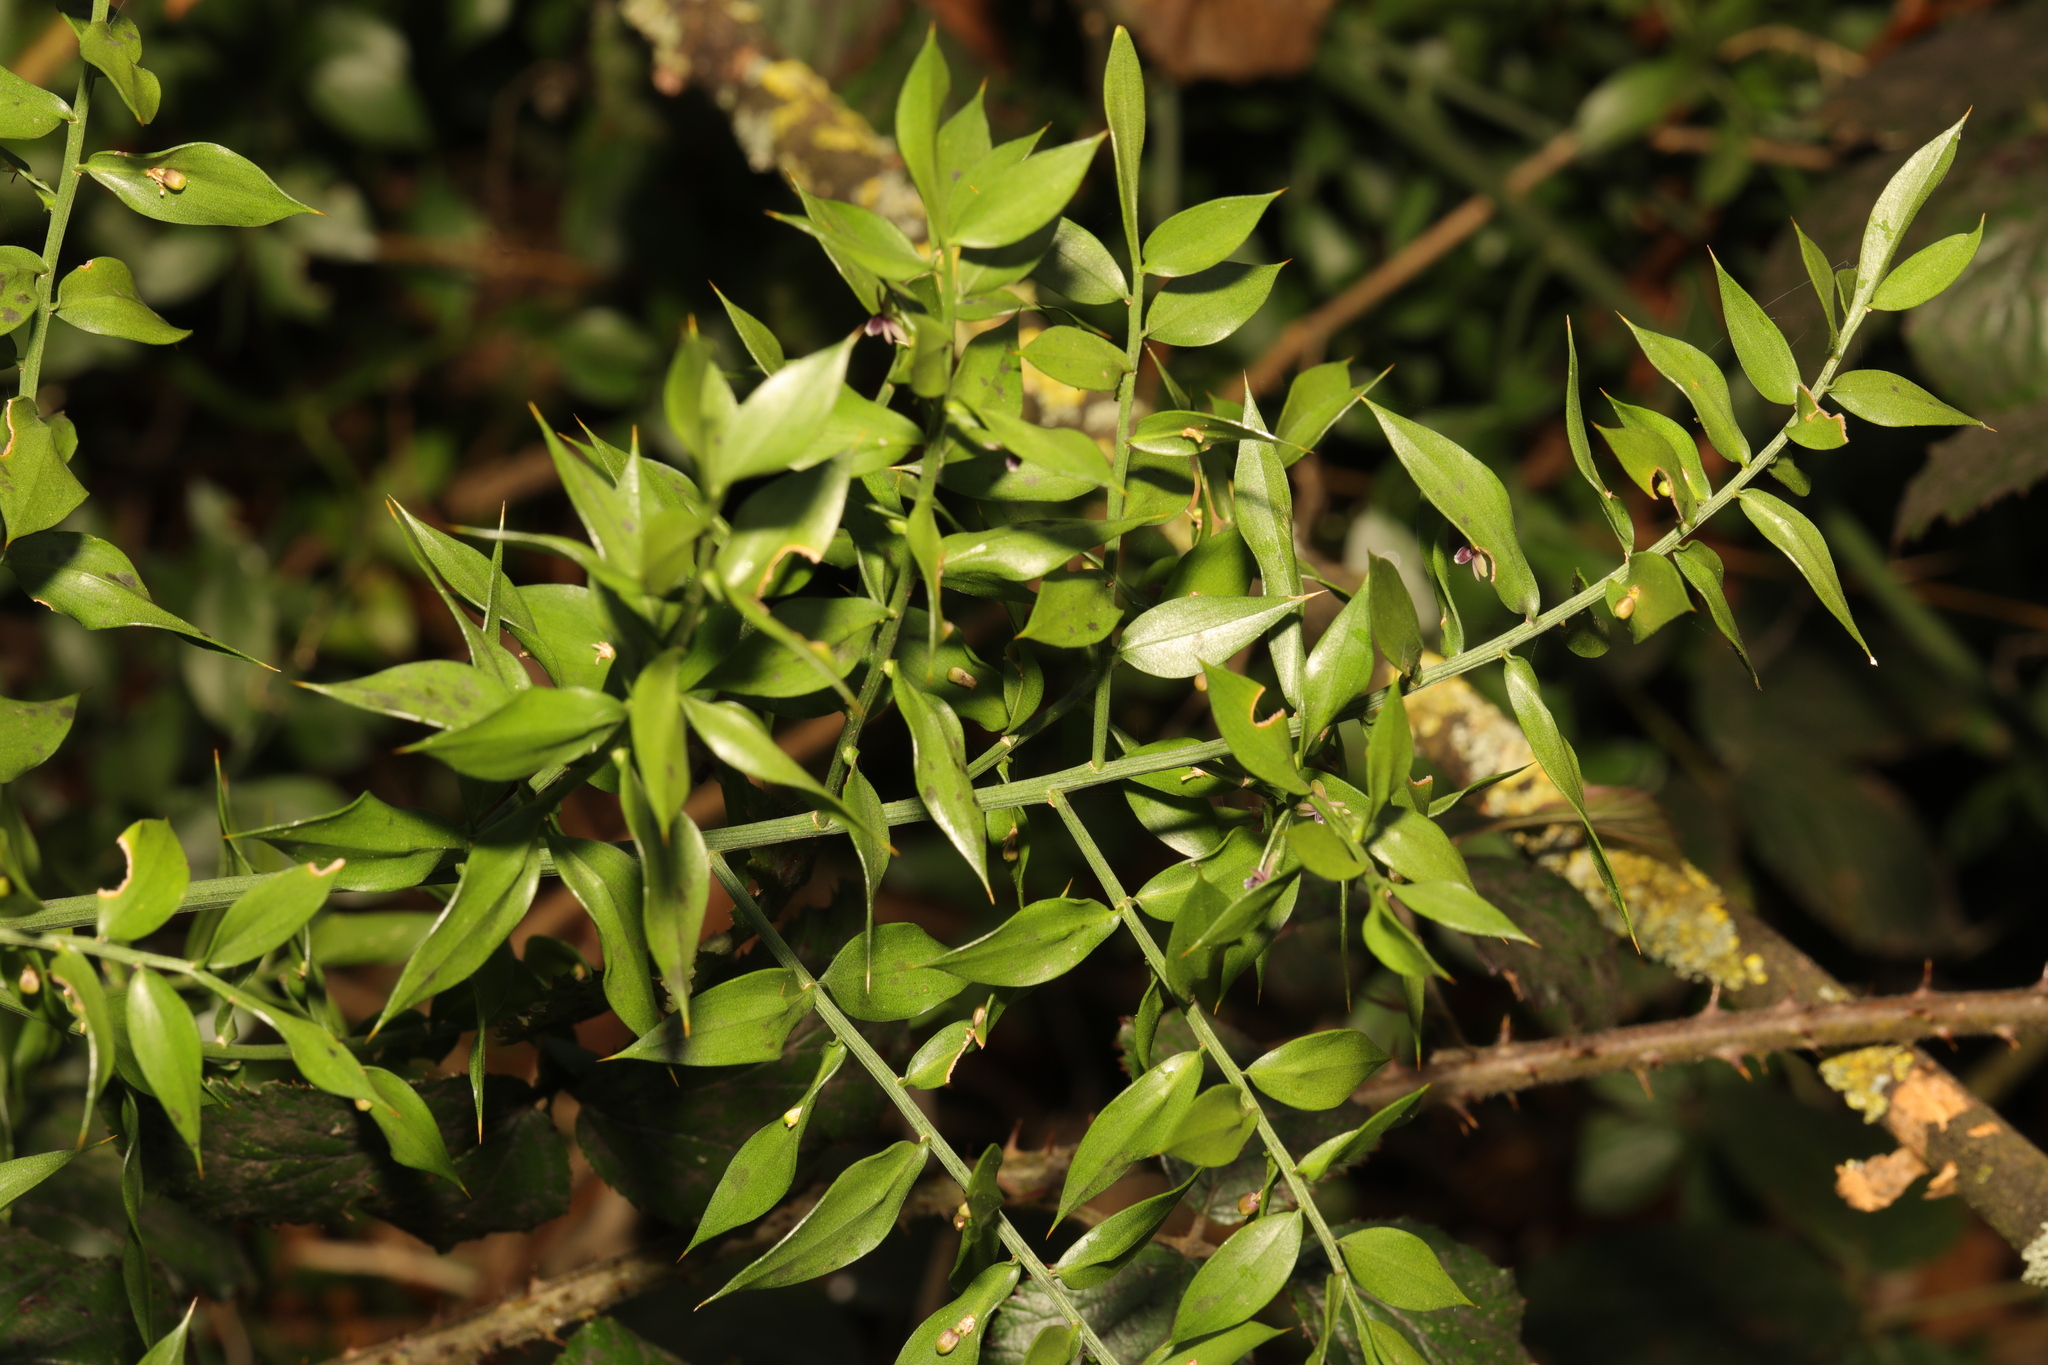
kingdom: Plantae
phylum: Tracheophyta
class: Liliopsida
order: Asparagales
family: Asparagaceae
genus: Ruscus
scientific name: Ruscus aculeatus
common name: Butcher's-broom
